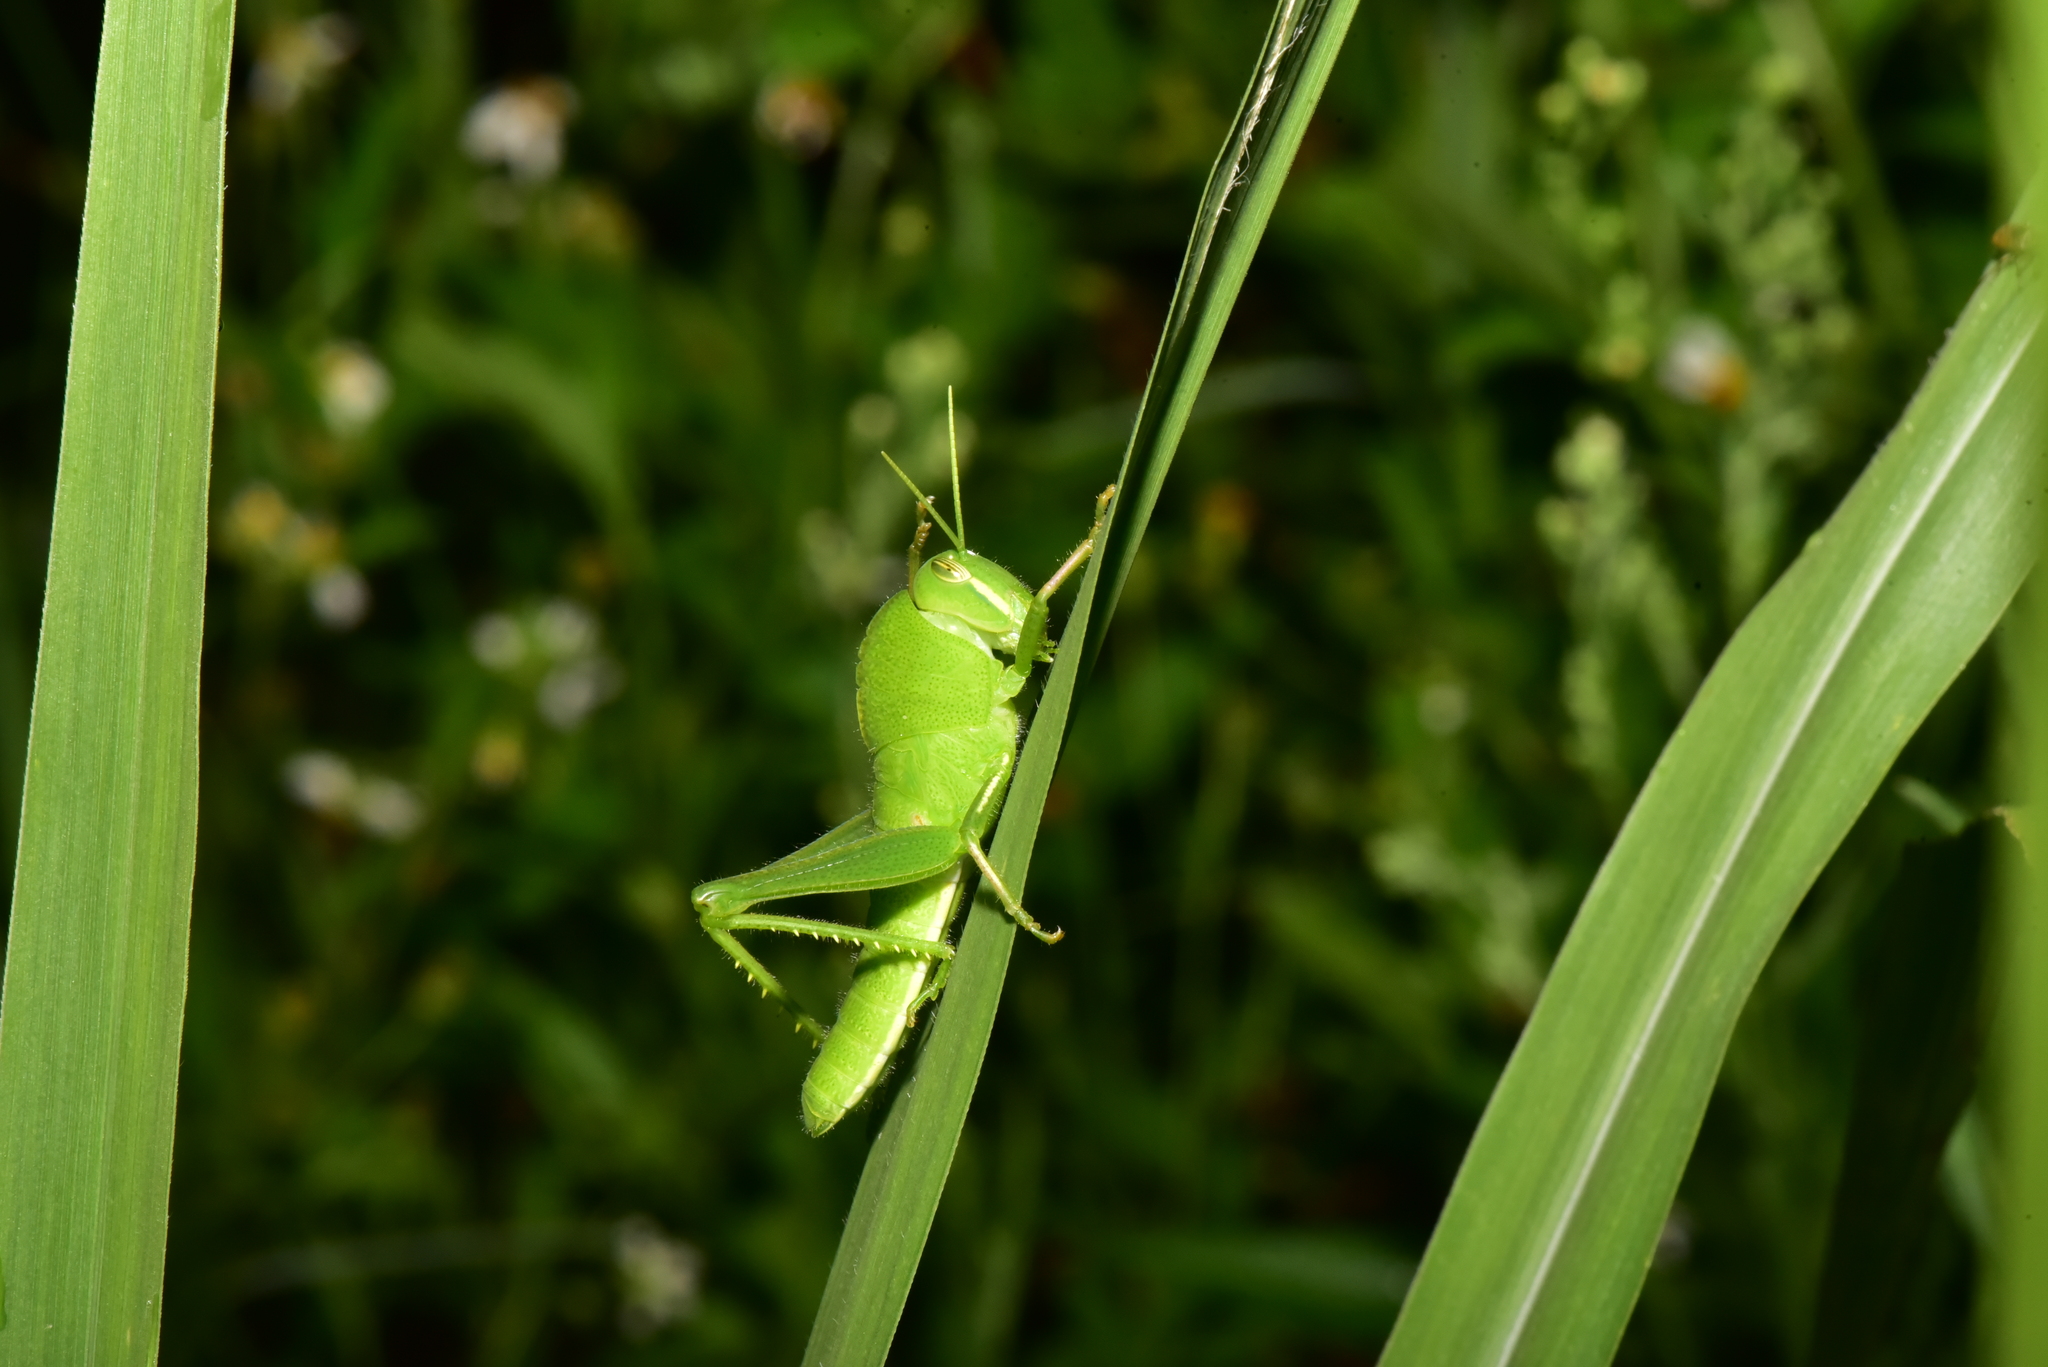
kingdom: Animalia
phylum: Arthropoda
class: Insecta
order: Orthoptera
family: Acrididae
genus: Chondracris
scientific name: Chondracris rosea
